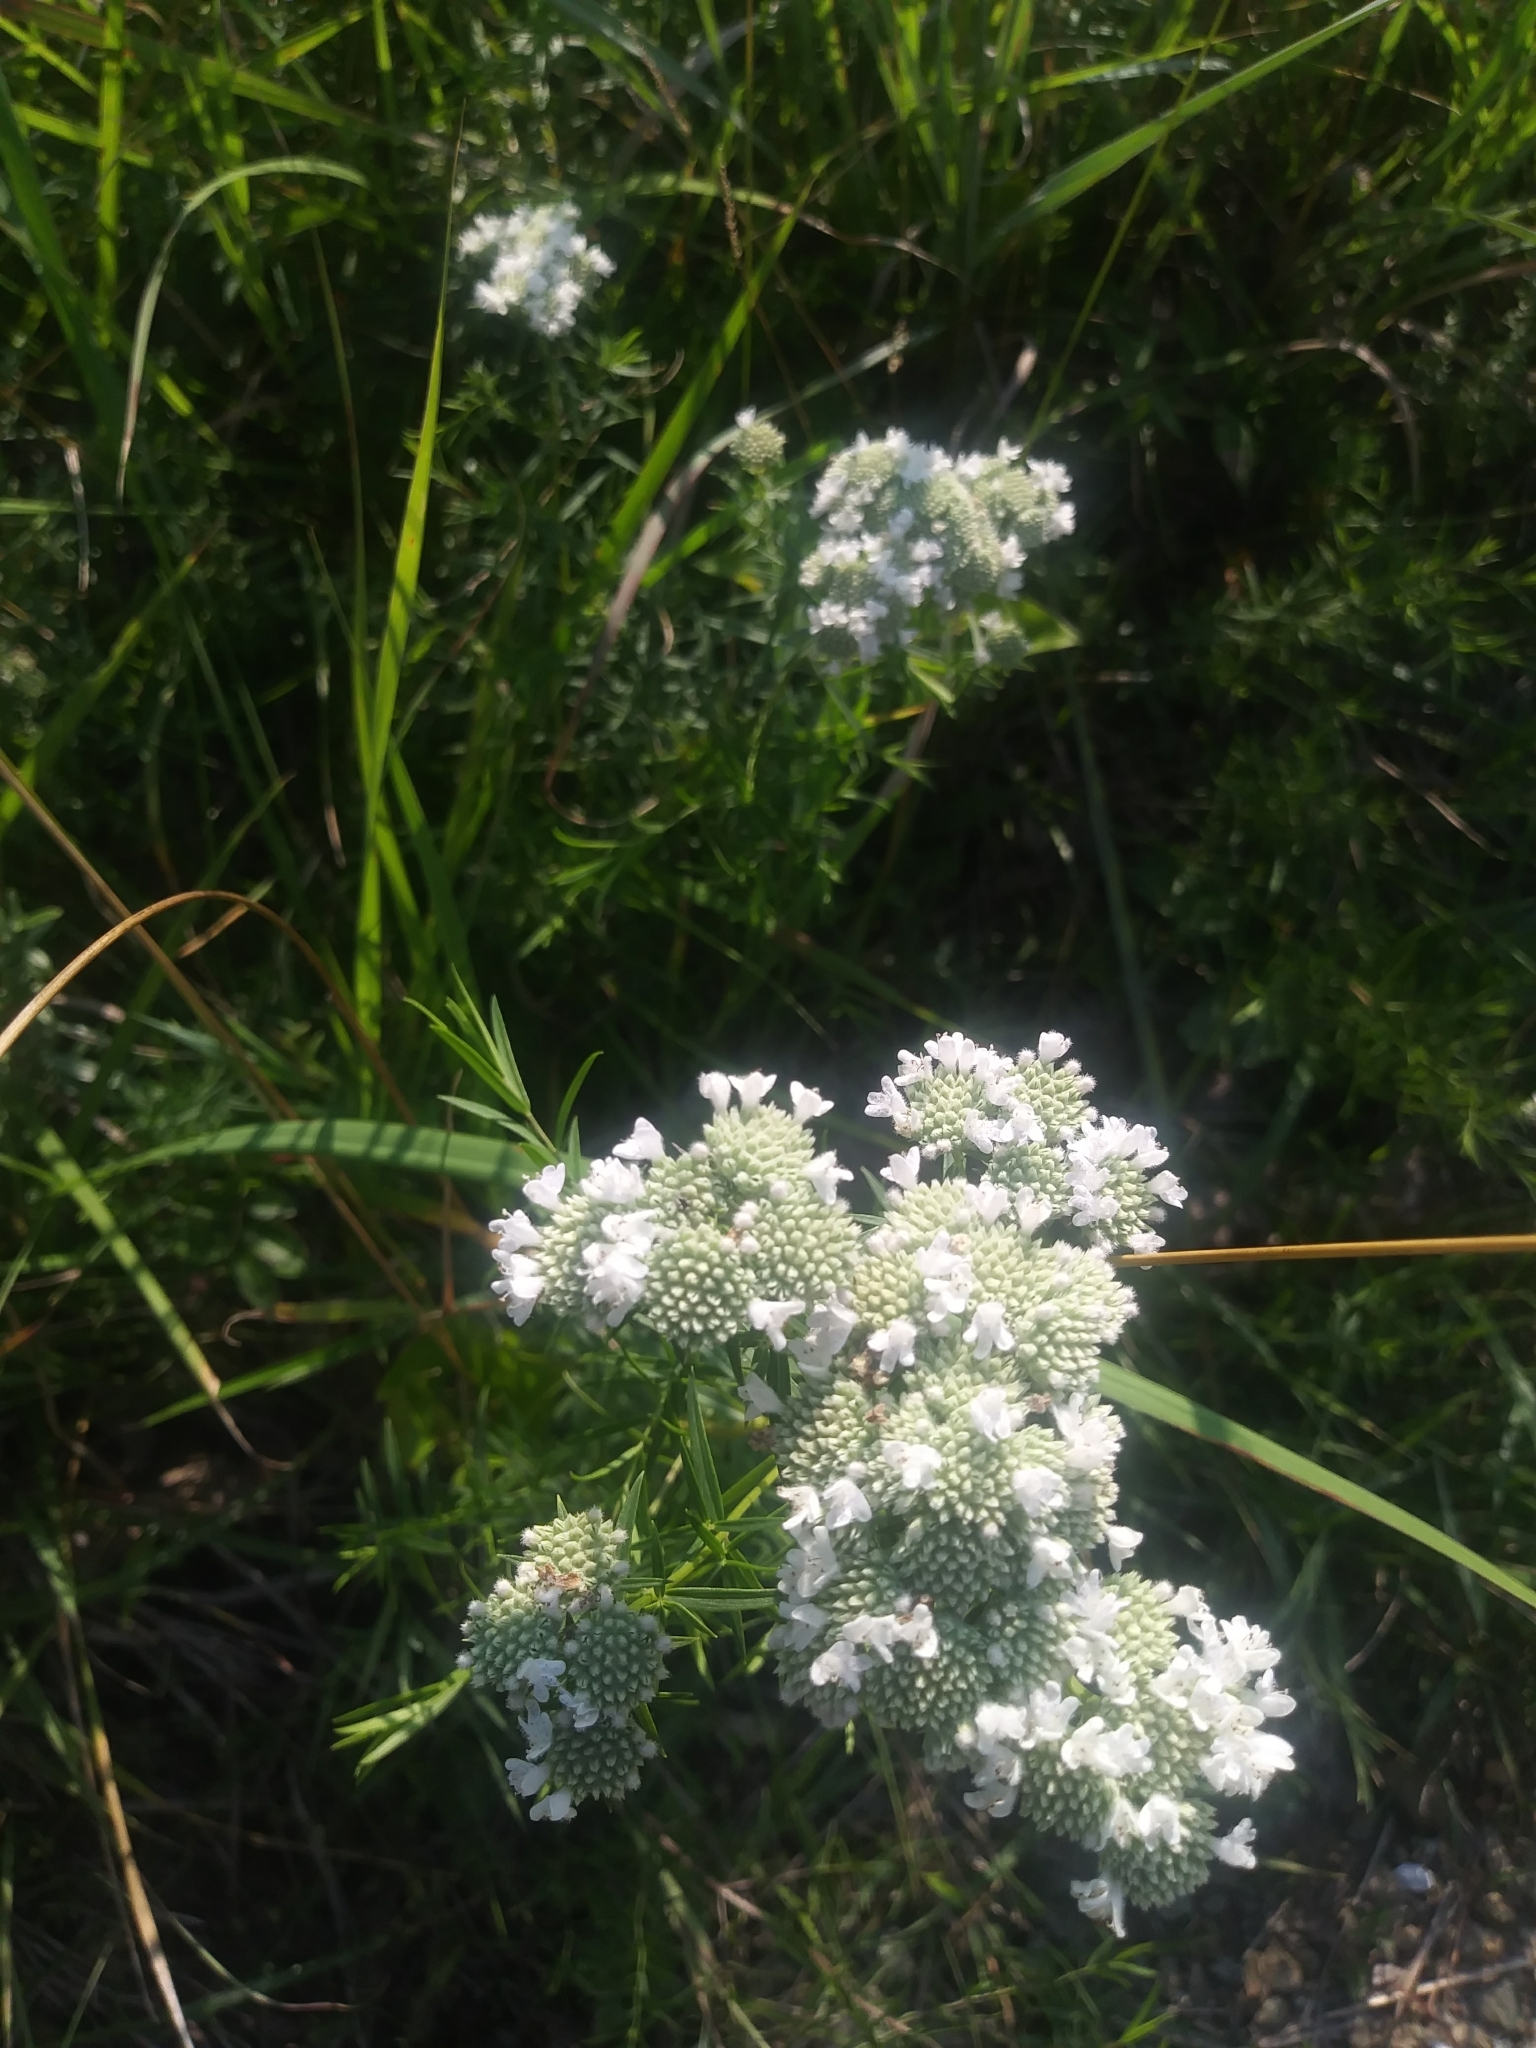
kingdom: Plantae
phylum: Tracheophyta
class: Magnoliopsida
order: Lamiales
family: Lamiaceae
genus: Pycnanthemum
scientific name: Pycnanthemum tenuifolium
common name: Narrow-leaf mountain-mint
